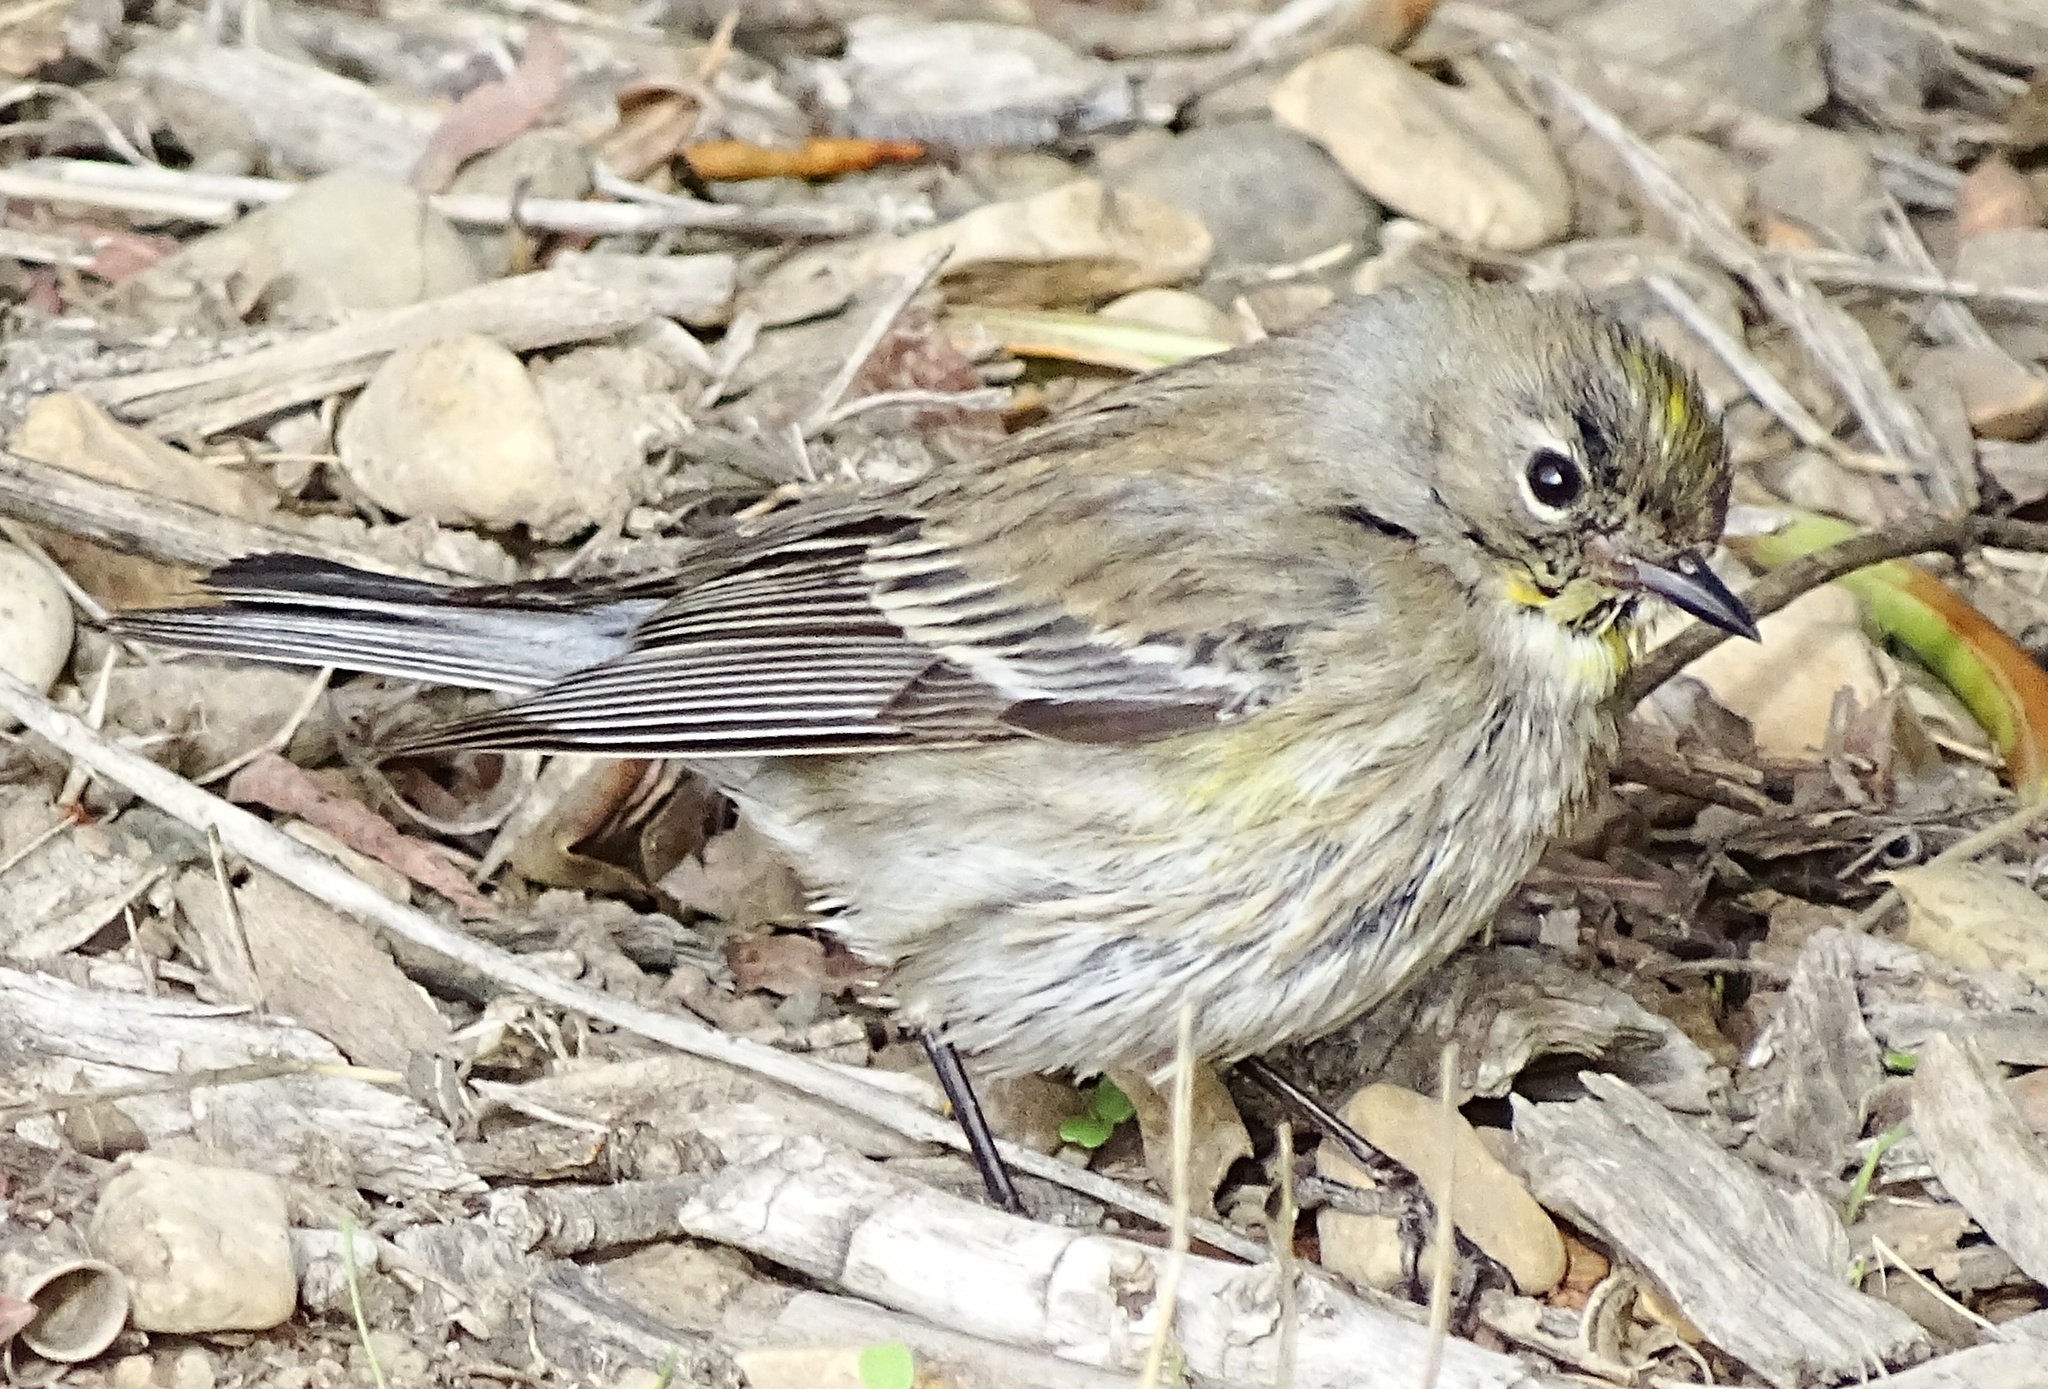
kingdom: Animalia
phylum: Chordata
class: Aves
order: Passeriformes
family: Parulidae
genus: Setophaga
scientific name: Setophaga coronata
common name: Myrtle warbler
